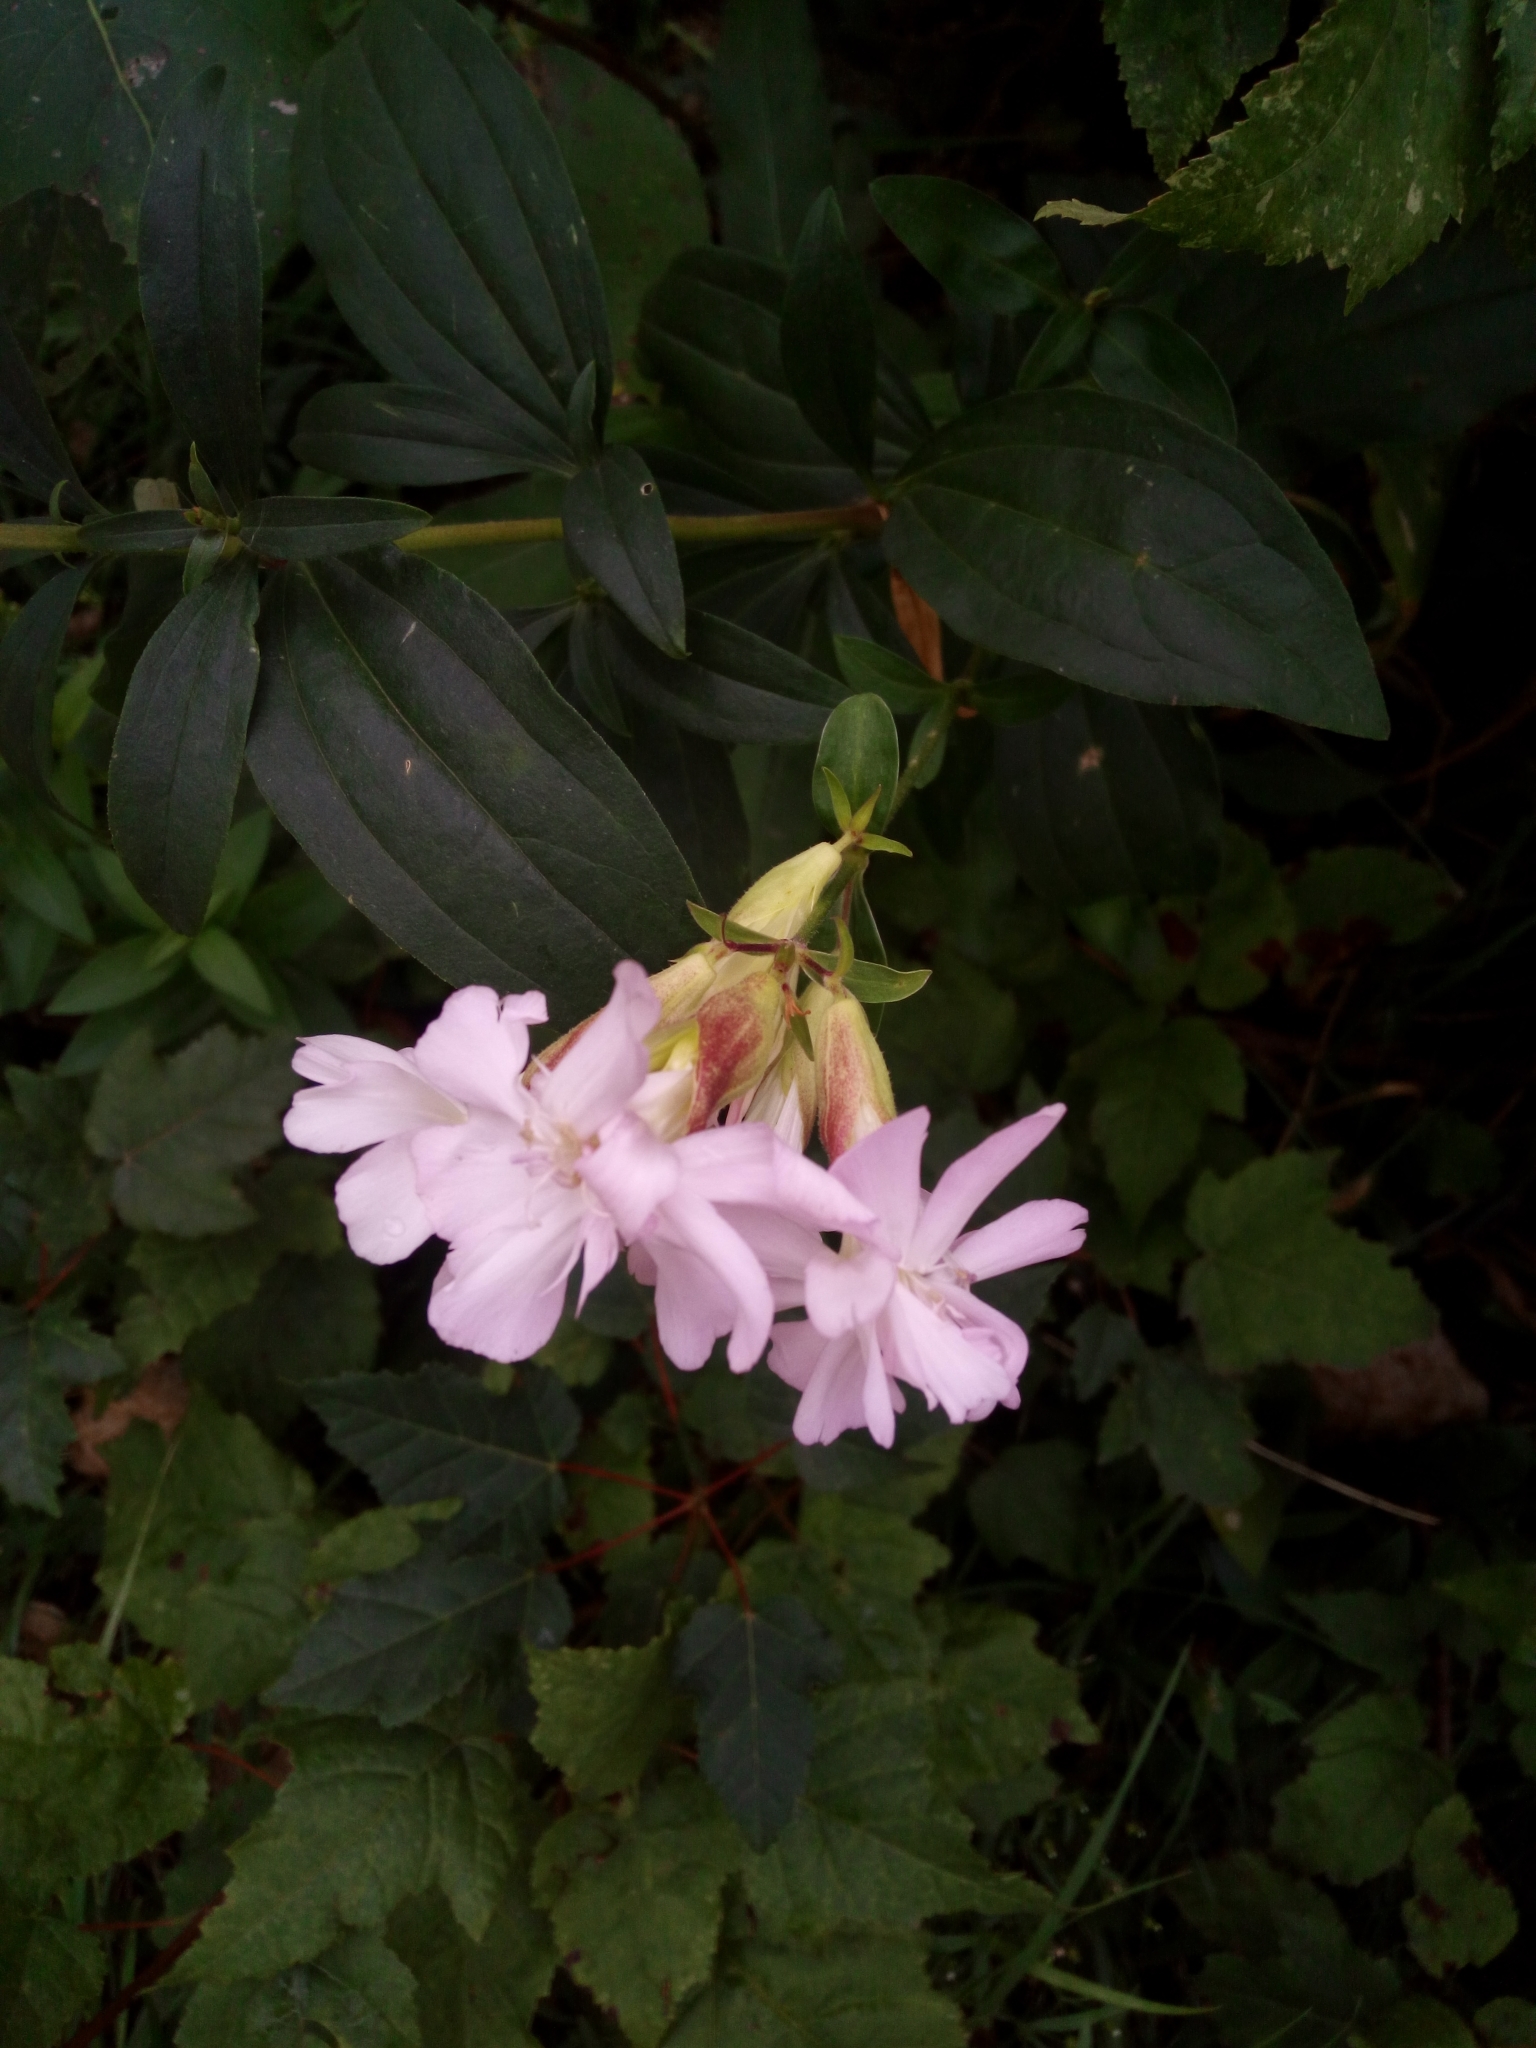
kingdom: Plantae
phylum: Tracheophyta
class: Magnoliopsida
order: Caryophyllales
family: Caryophyllaceae
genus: Saponaria
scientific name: Saponaria officinalis
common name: Soapwort
